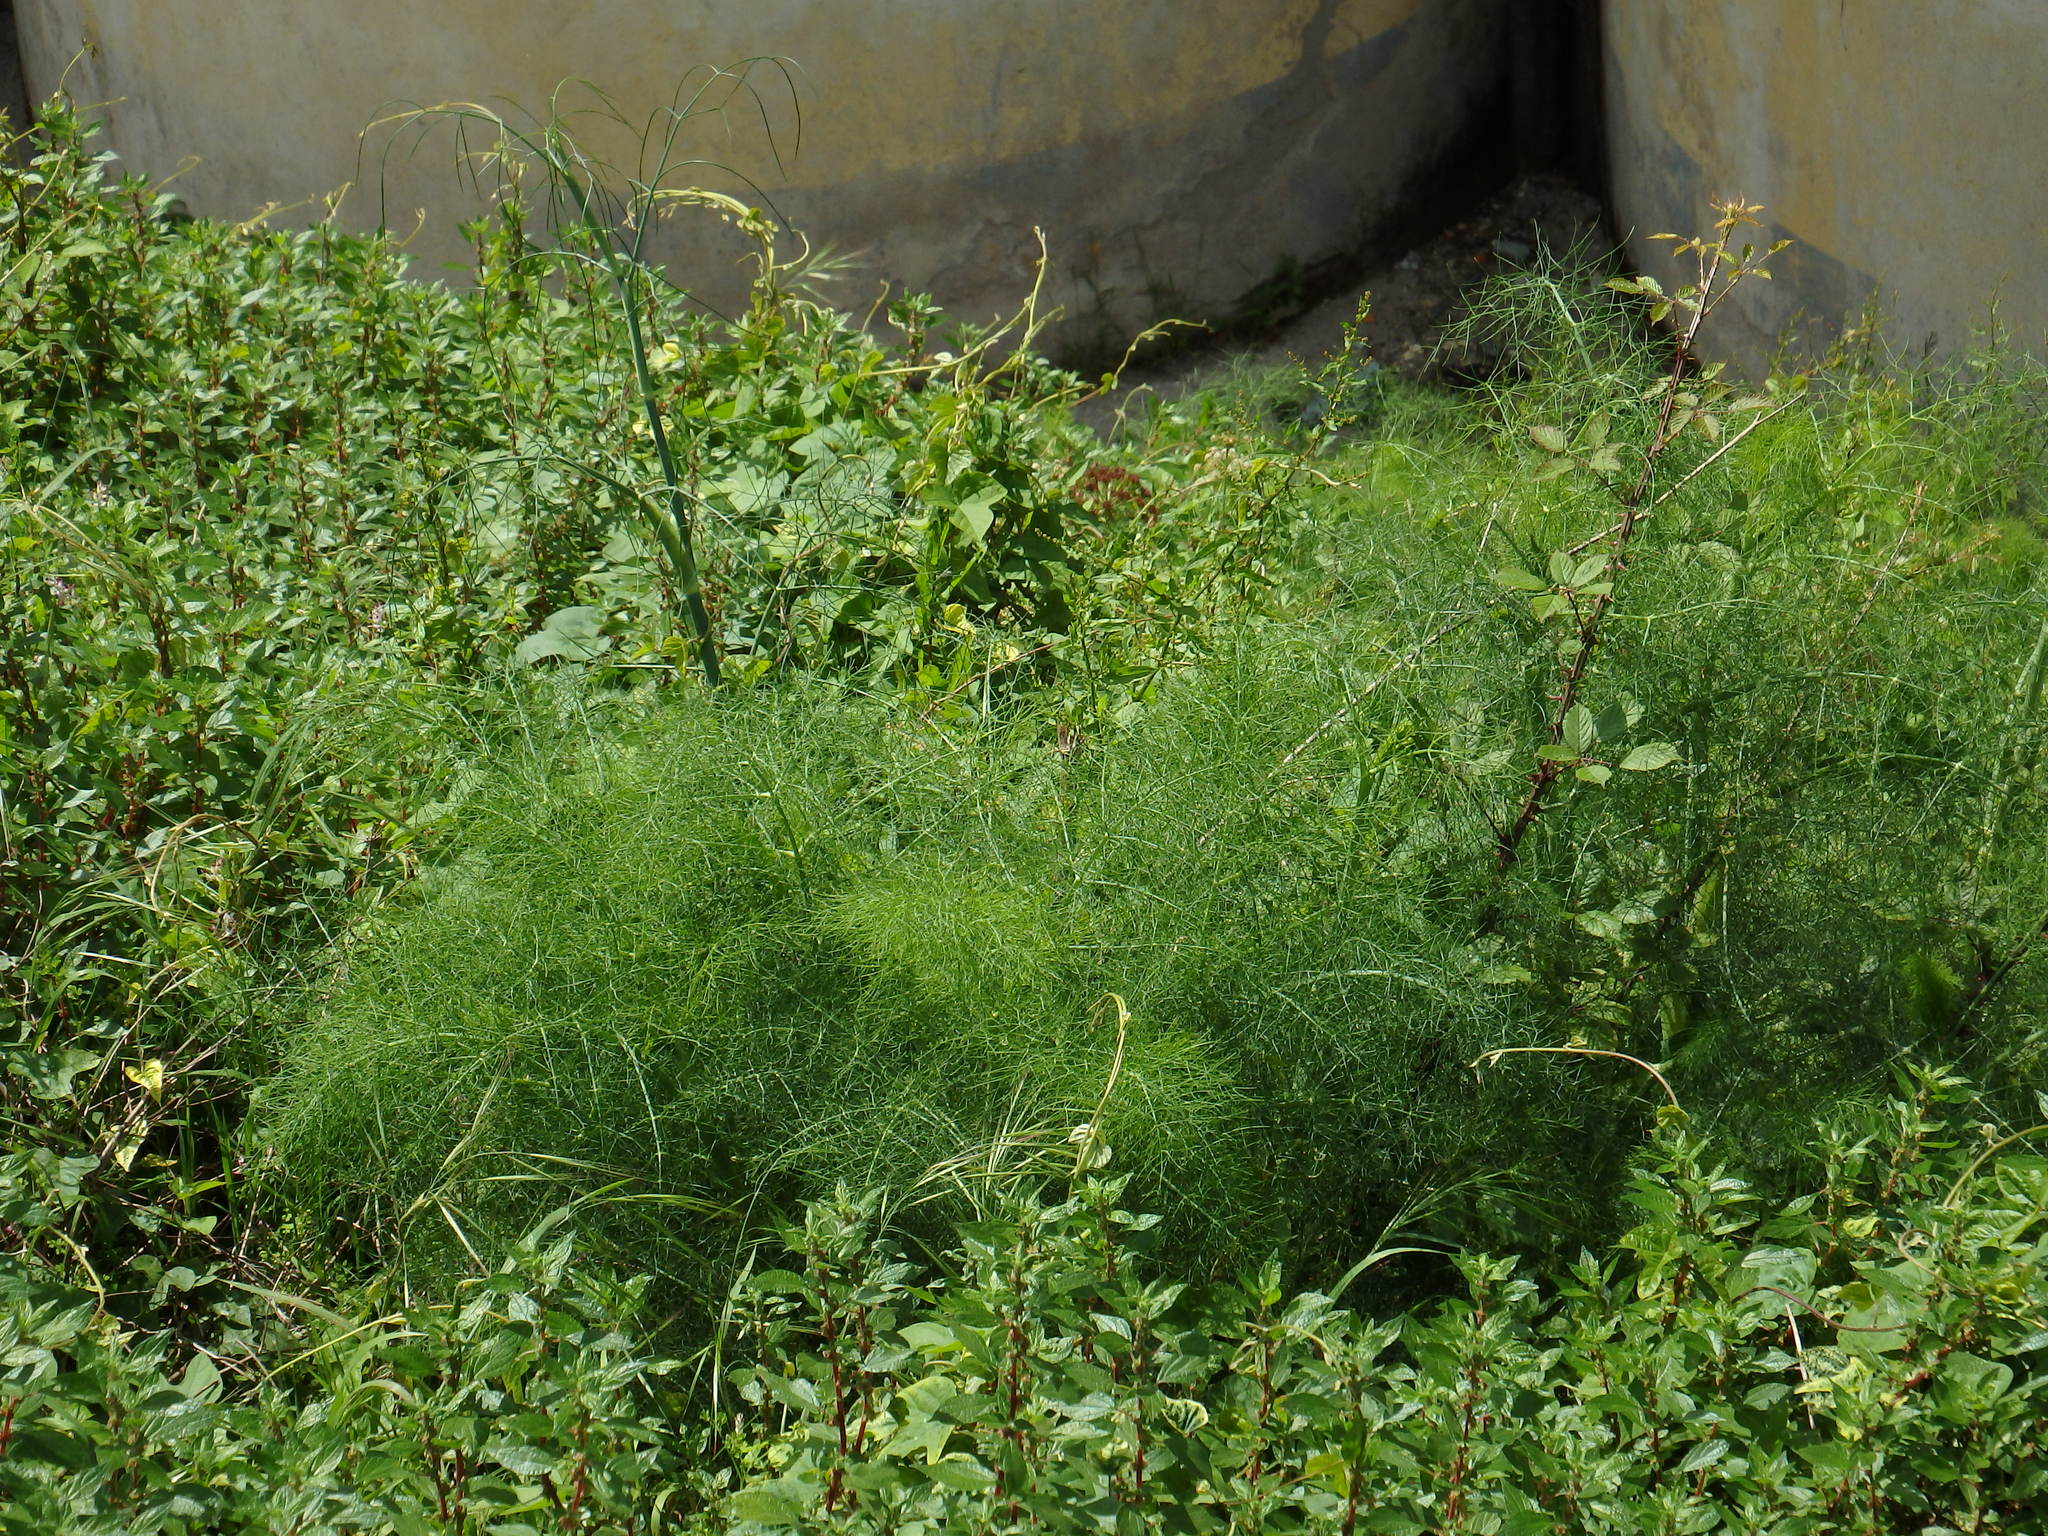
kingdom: Plantae
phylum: Tracheophyta
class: Magnoliopsida
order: Apiales
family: Apiaceae
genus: Foeniculum
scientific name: Foeniculum vulgare
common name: Fennel
